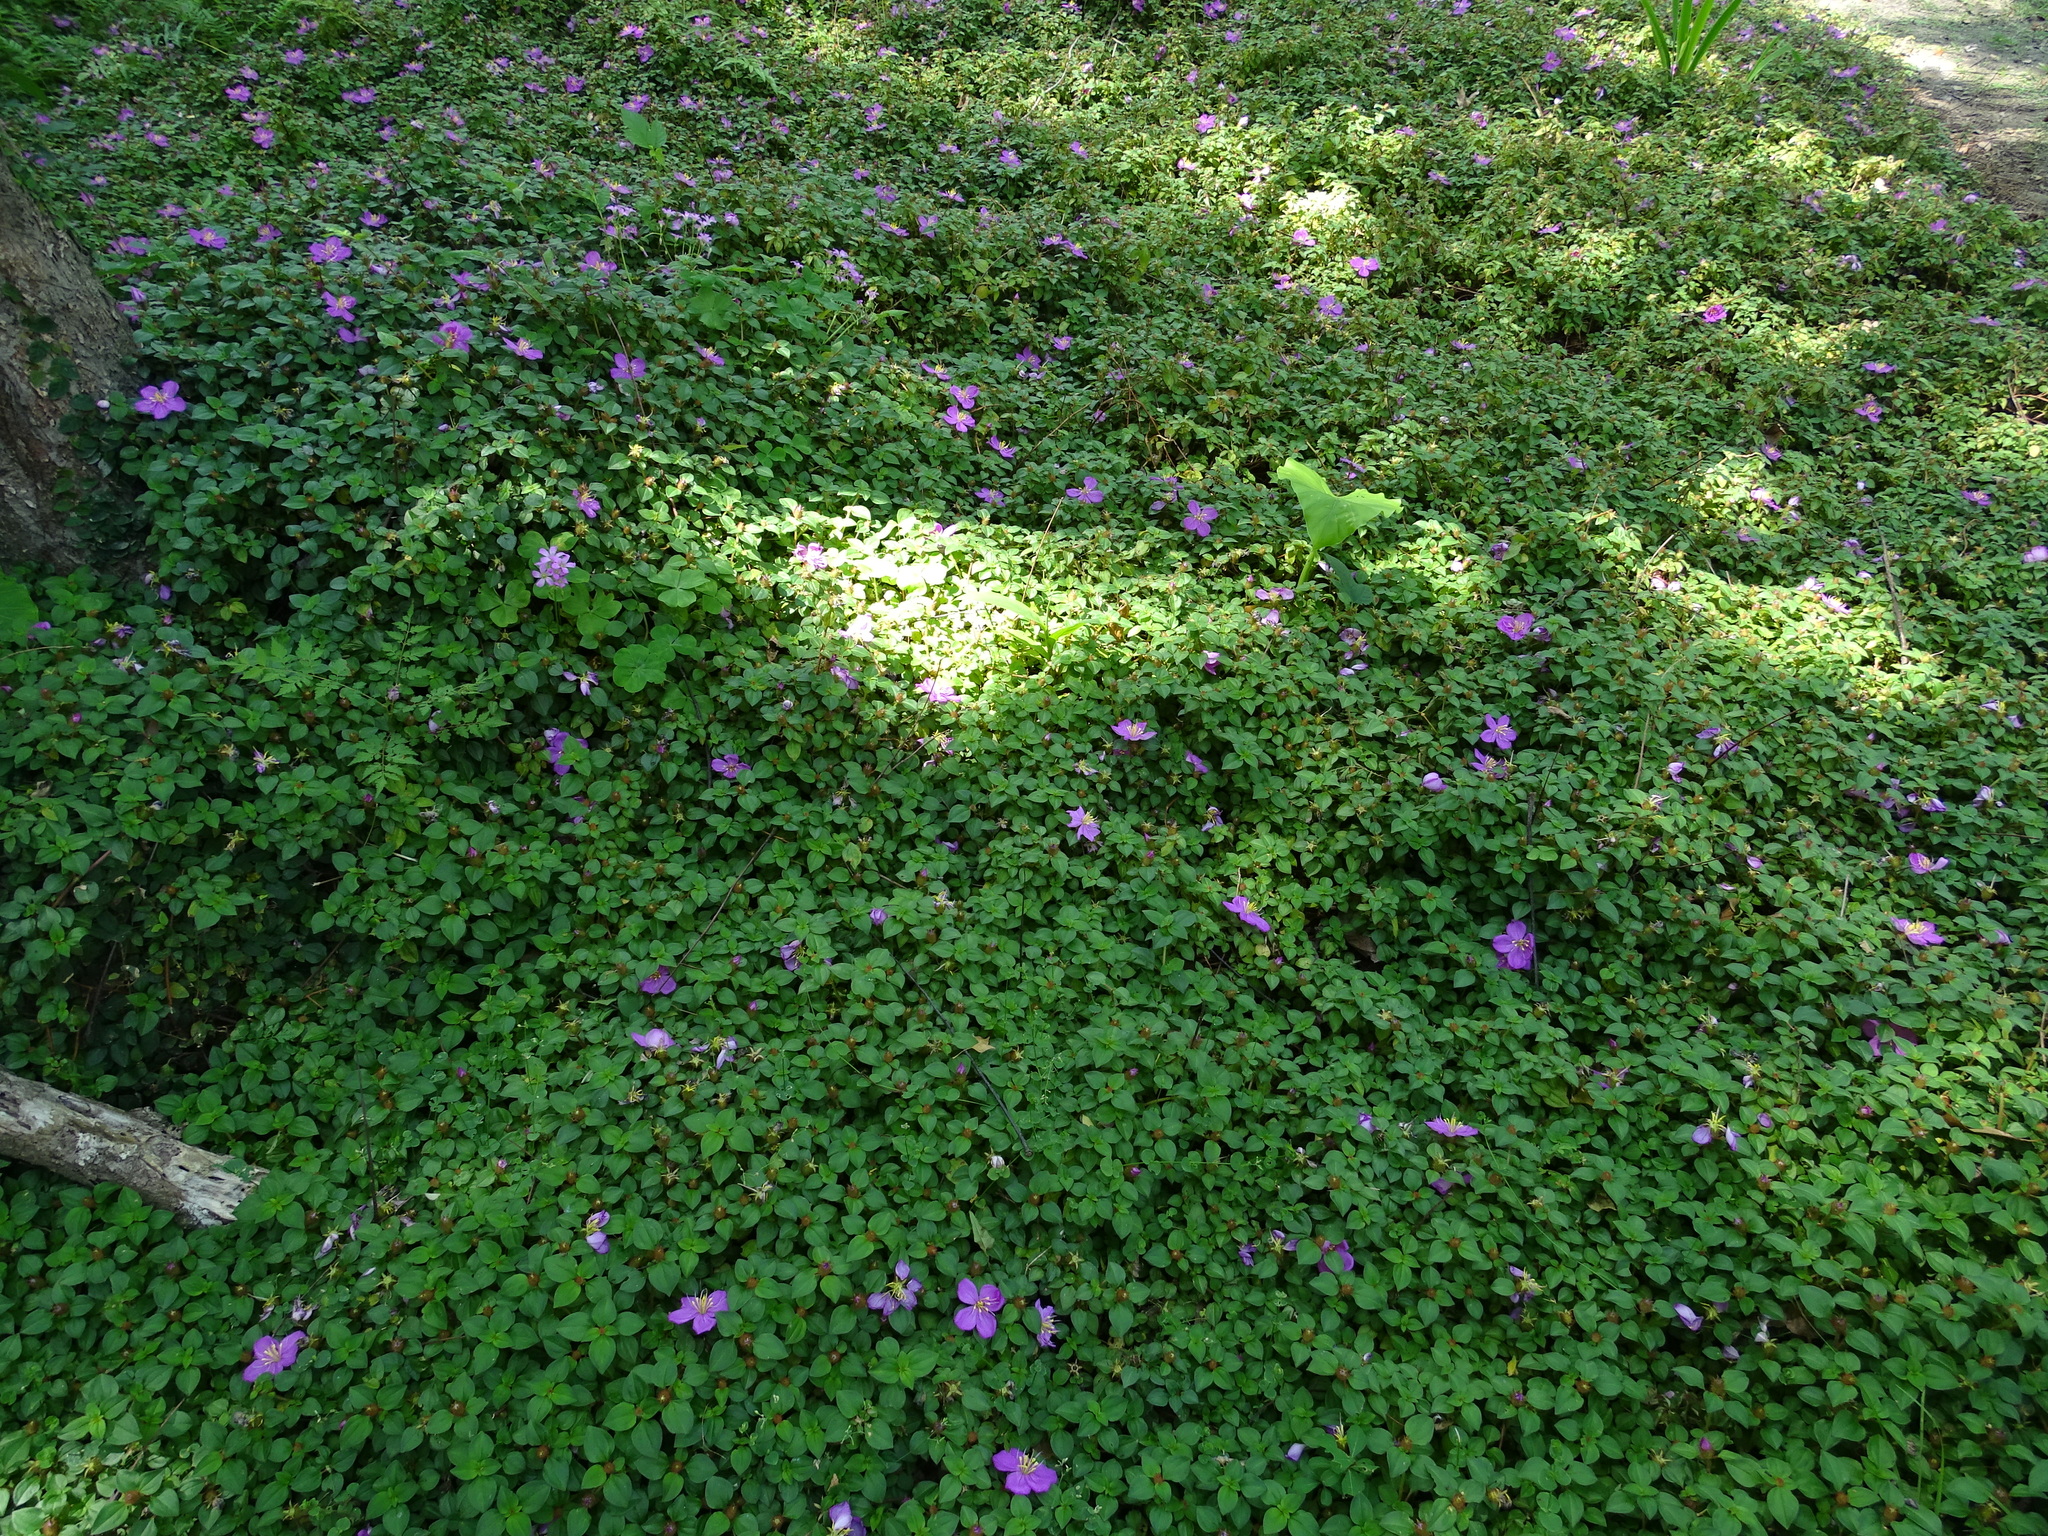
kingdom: Plantae
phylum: Tracheophyta
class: Magnoliopsida
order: Myrtales
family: Melastomataceae
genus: Heterotis
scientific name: Heterotis rotundifolia
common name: Pinklady
